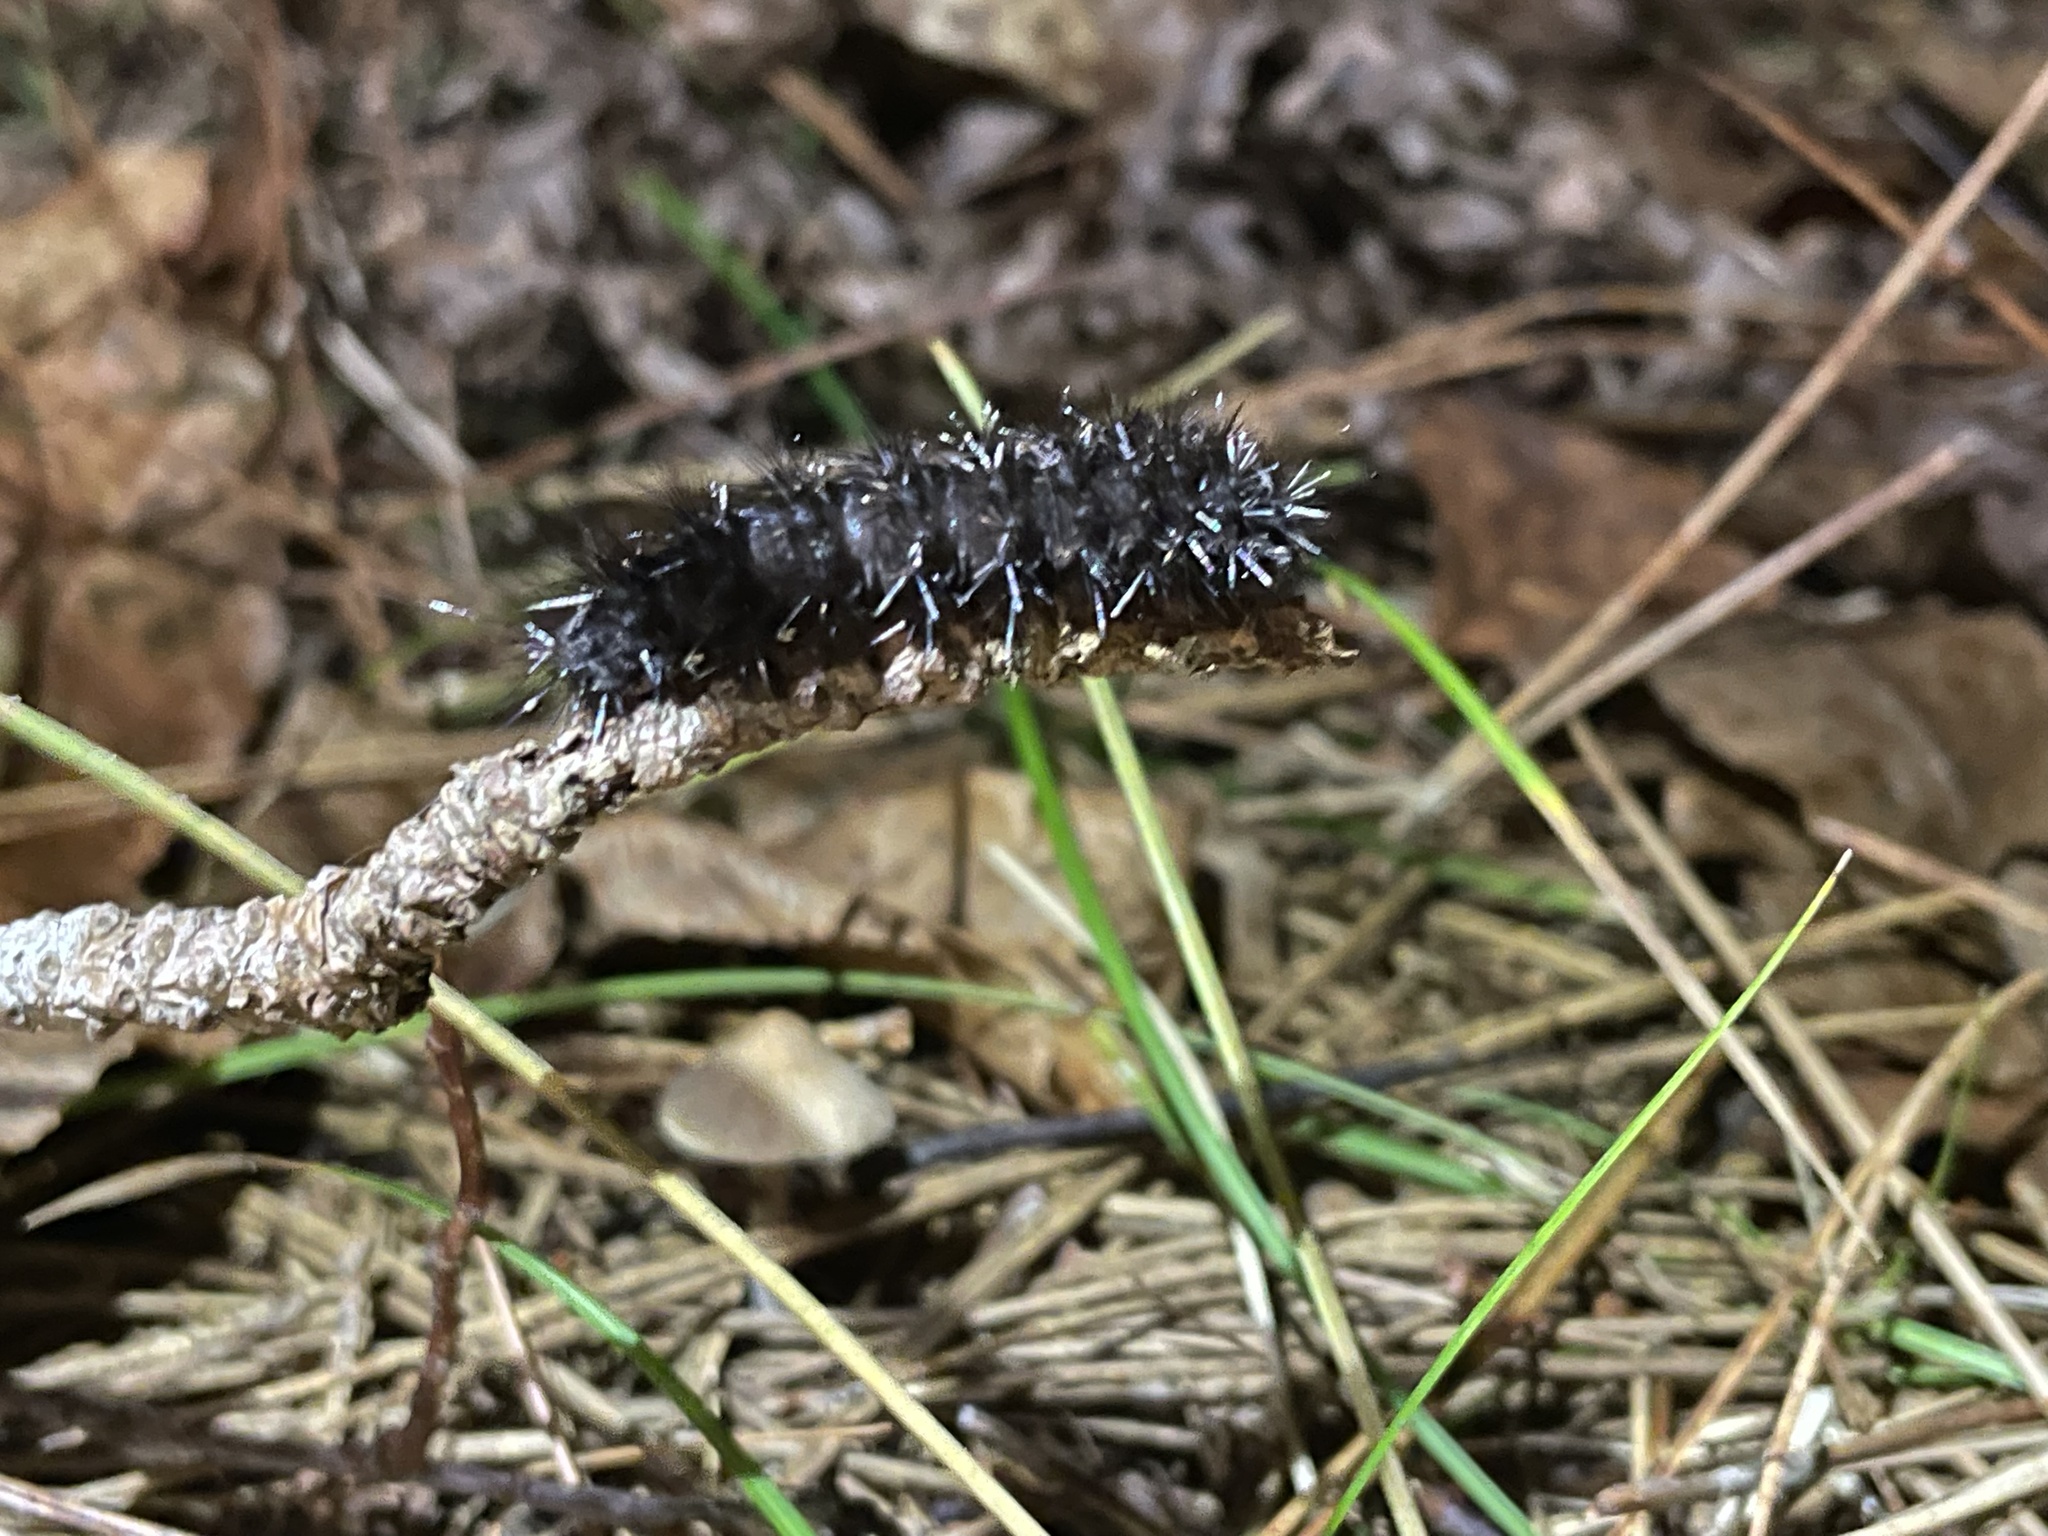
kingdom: Animalia
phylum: Arthropoda
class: Insecta
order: Lepidoptera
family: Saturniidae
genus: Hemileuca
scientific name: Hemileuca maia
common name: Eastern buckmoth
